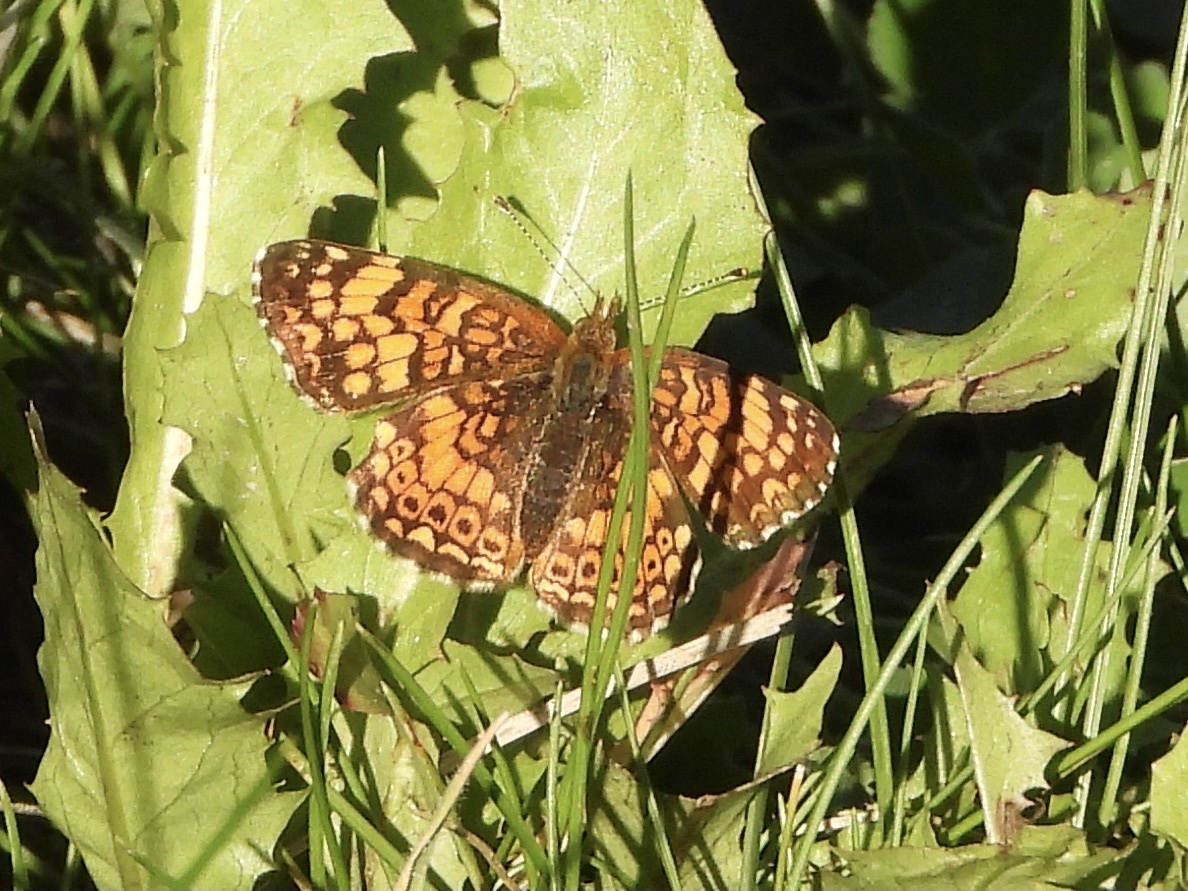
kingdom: Animalia
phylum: Arthropoda
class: Insecta
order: Lepidoptera
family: Nymphalidae
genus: Eresia
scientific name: Eresia aveyrona
